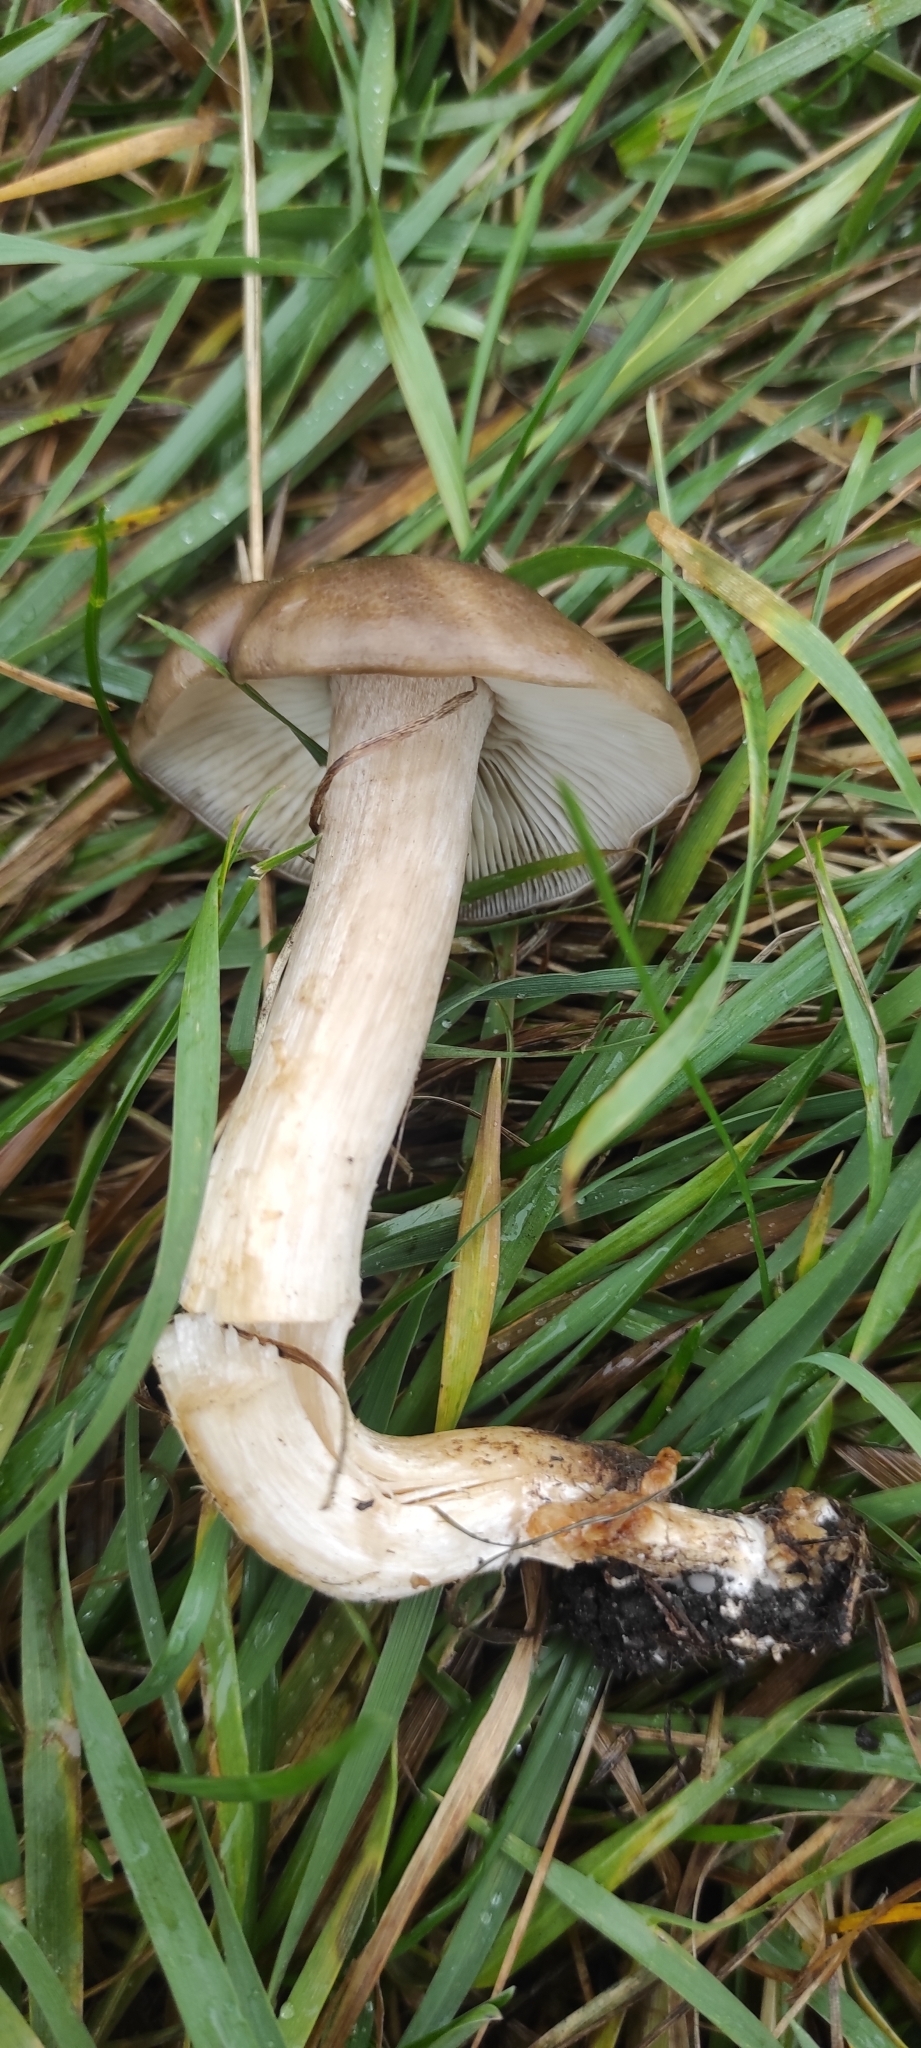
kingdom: Fungi
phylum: Basidiomycota
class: Agaricomycetes
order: Agaricales
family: Lyophyllaceae
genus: Lyophyllum
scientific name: Lyophyllum decastes
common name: Clustered domecap
